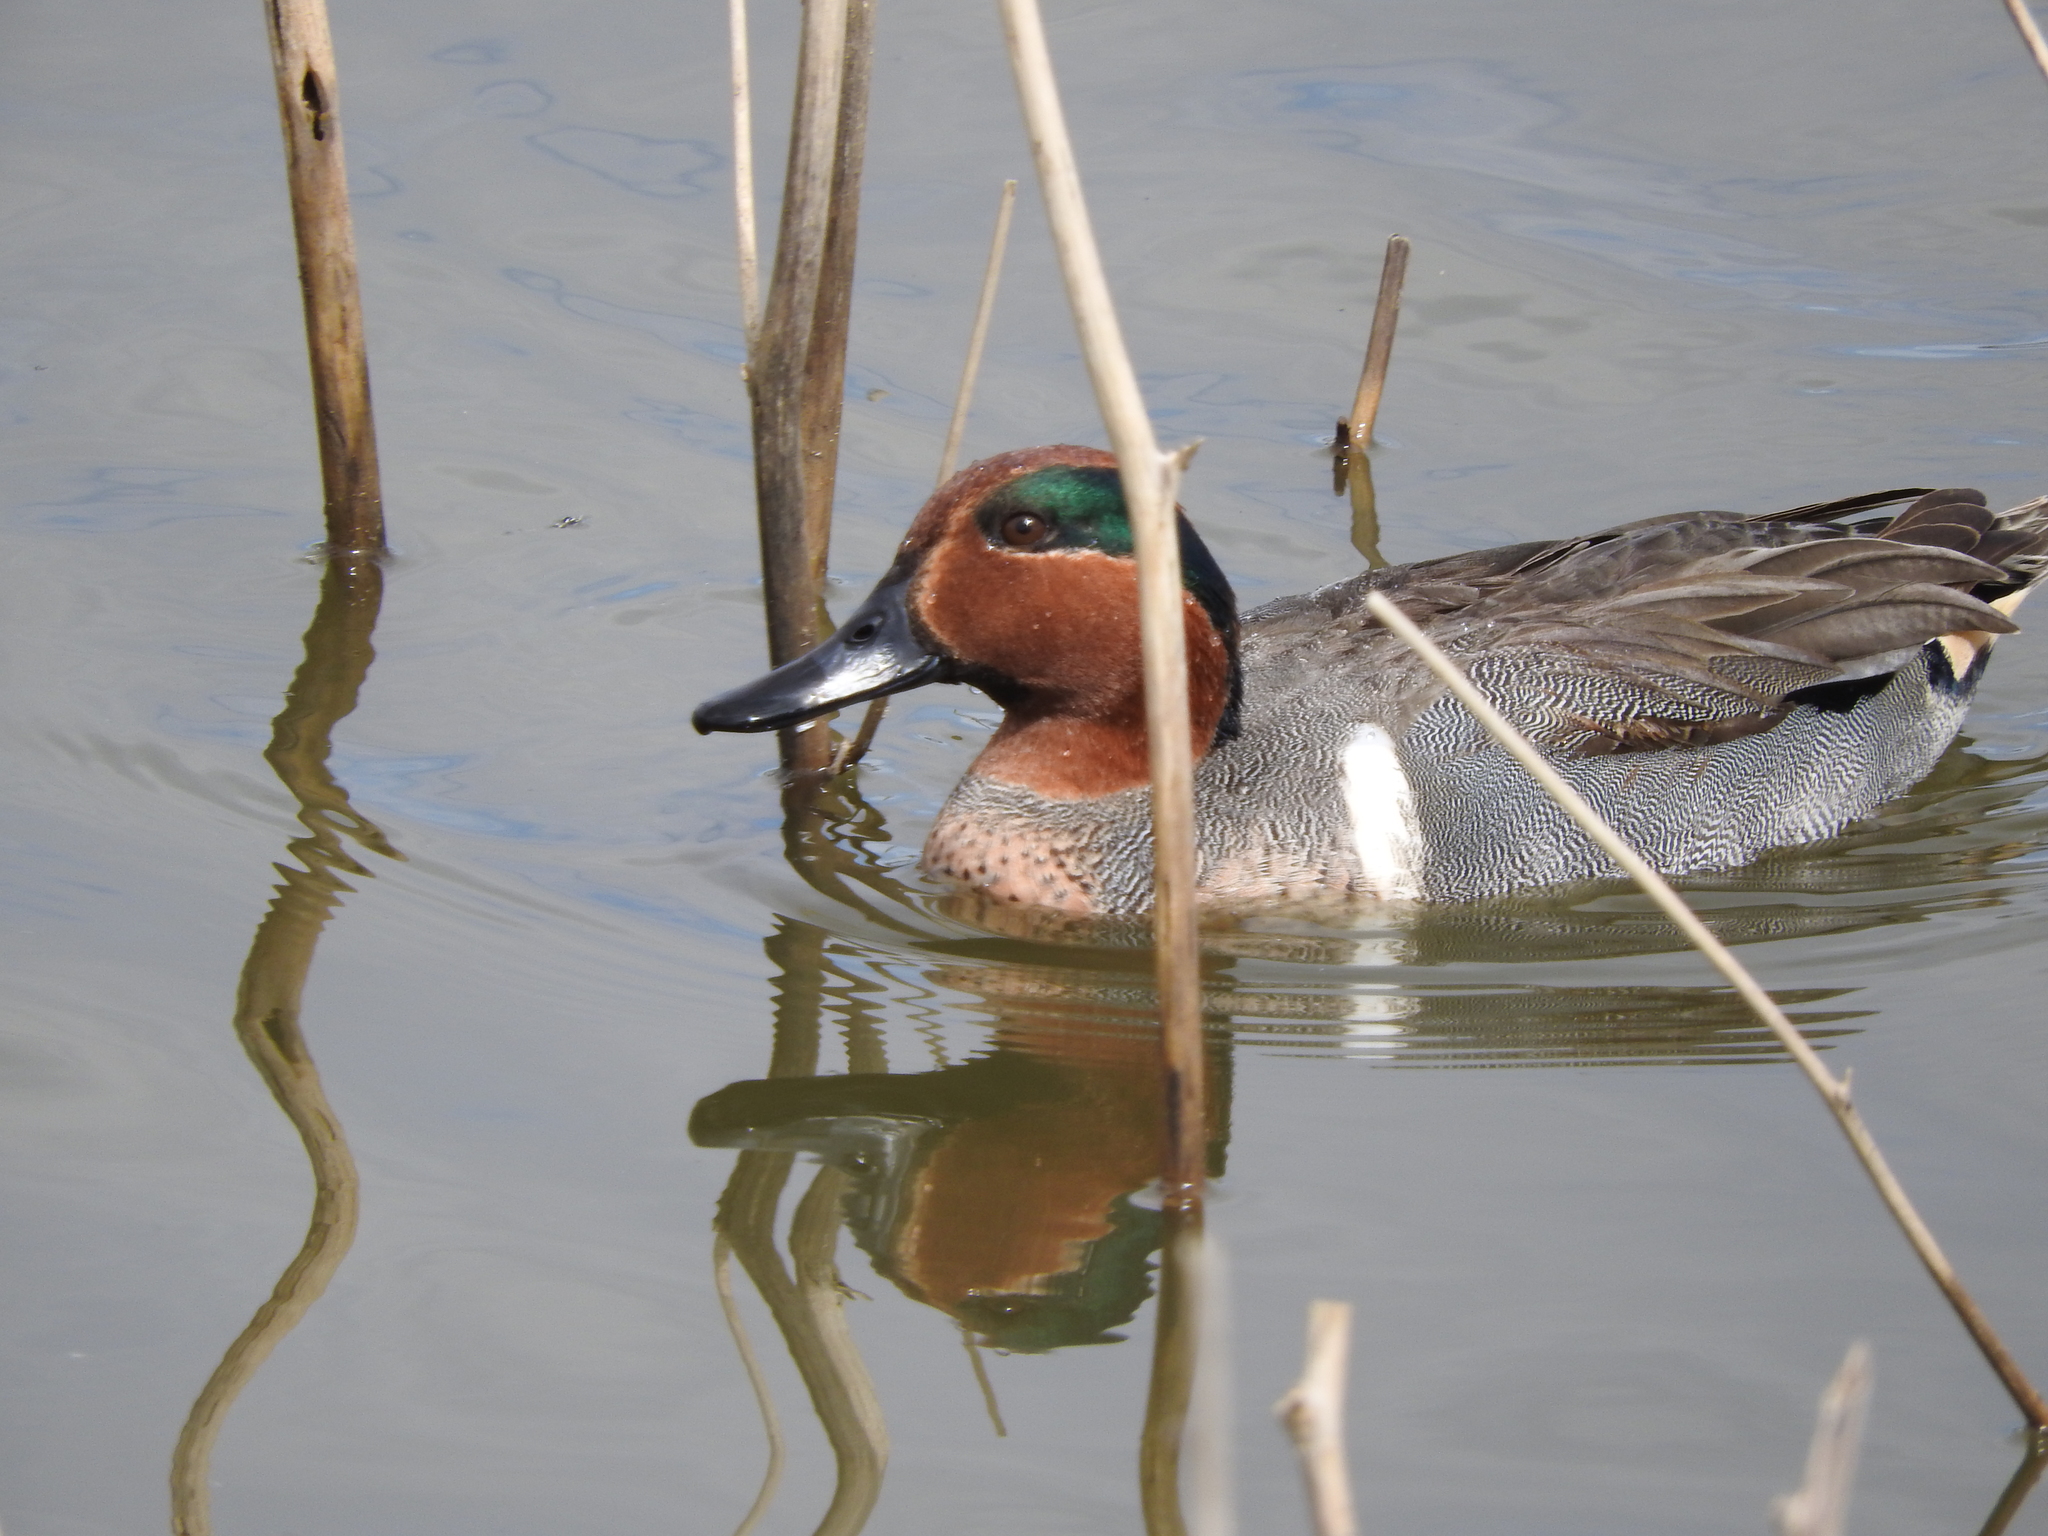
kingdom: Animalia
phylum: Chordata
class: Aves
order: Anseriformes
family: Anatidae
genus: Anas
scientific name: Anas crecca
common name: Eurasian teal
